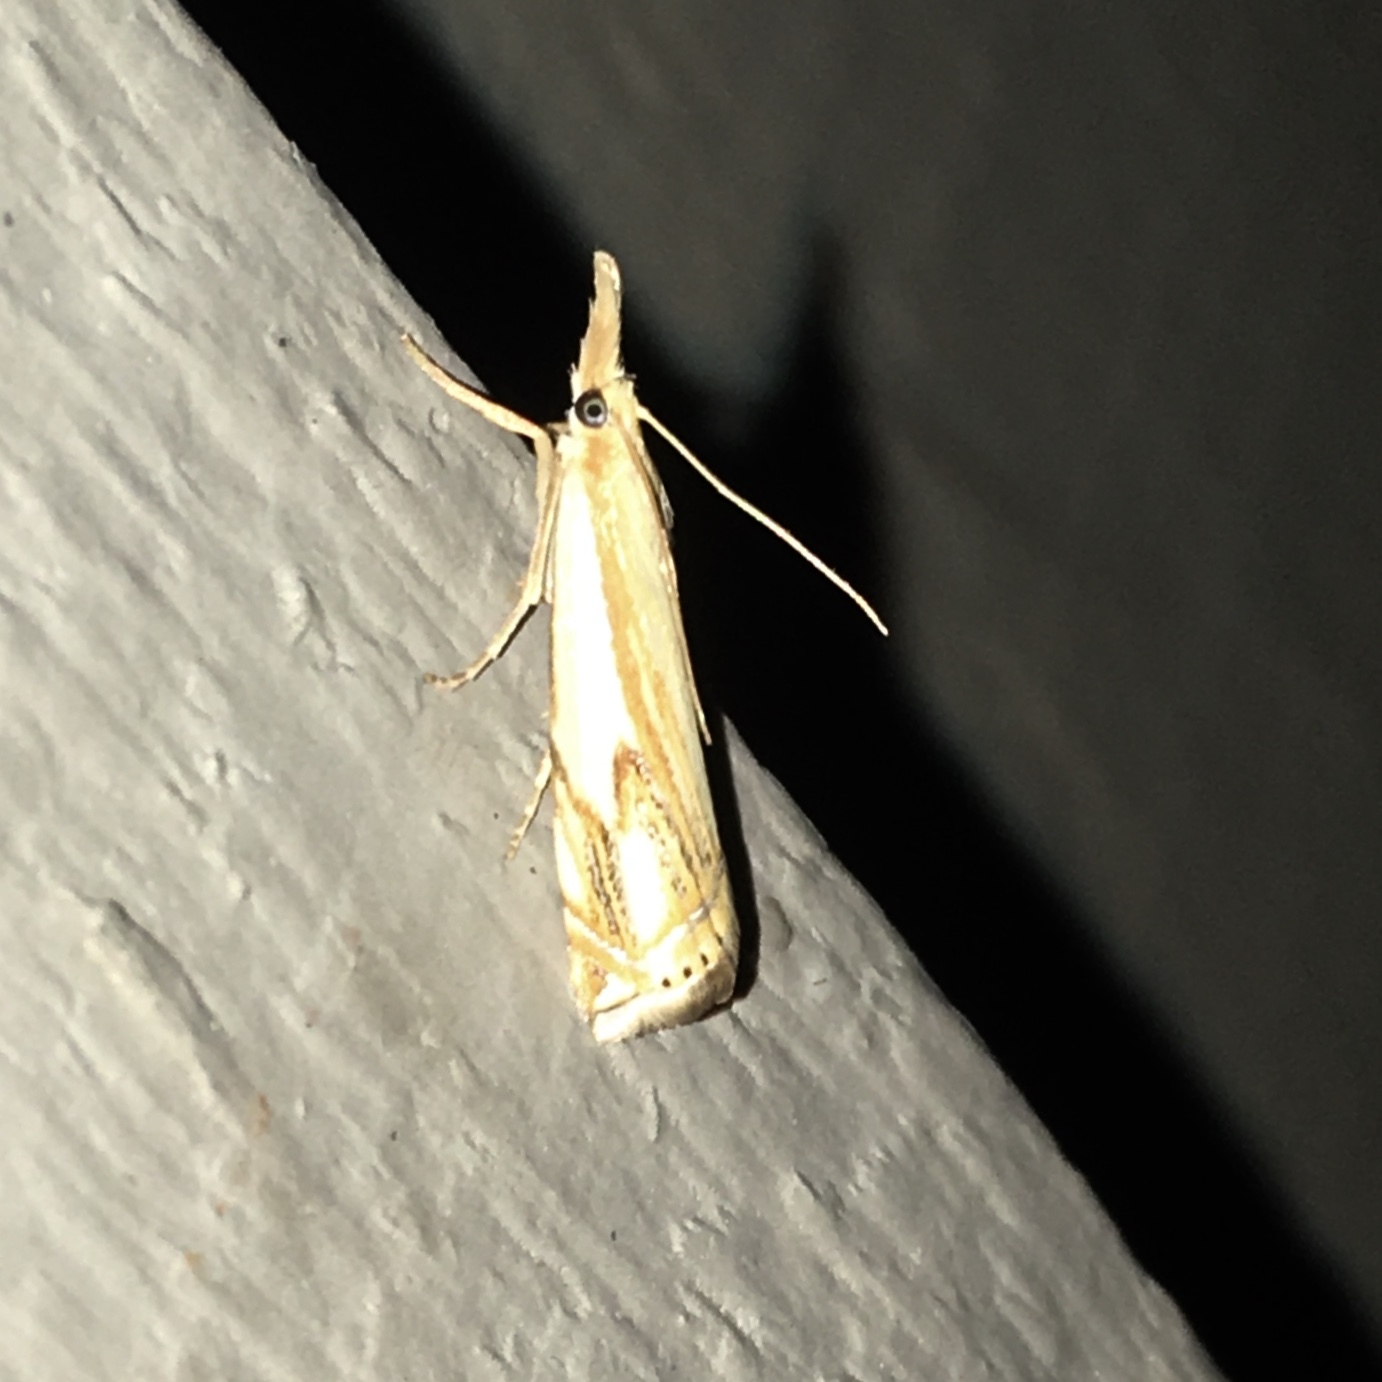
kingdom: Animalia
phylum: Arthropoda
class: Insecta
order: Lepidoptera
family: Crambidae
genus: Crambus
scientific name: Crambus agitatellus
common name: Double-banded grass-veneer
